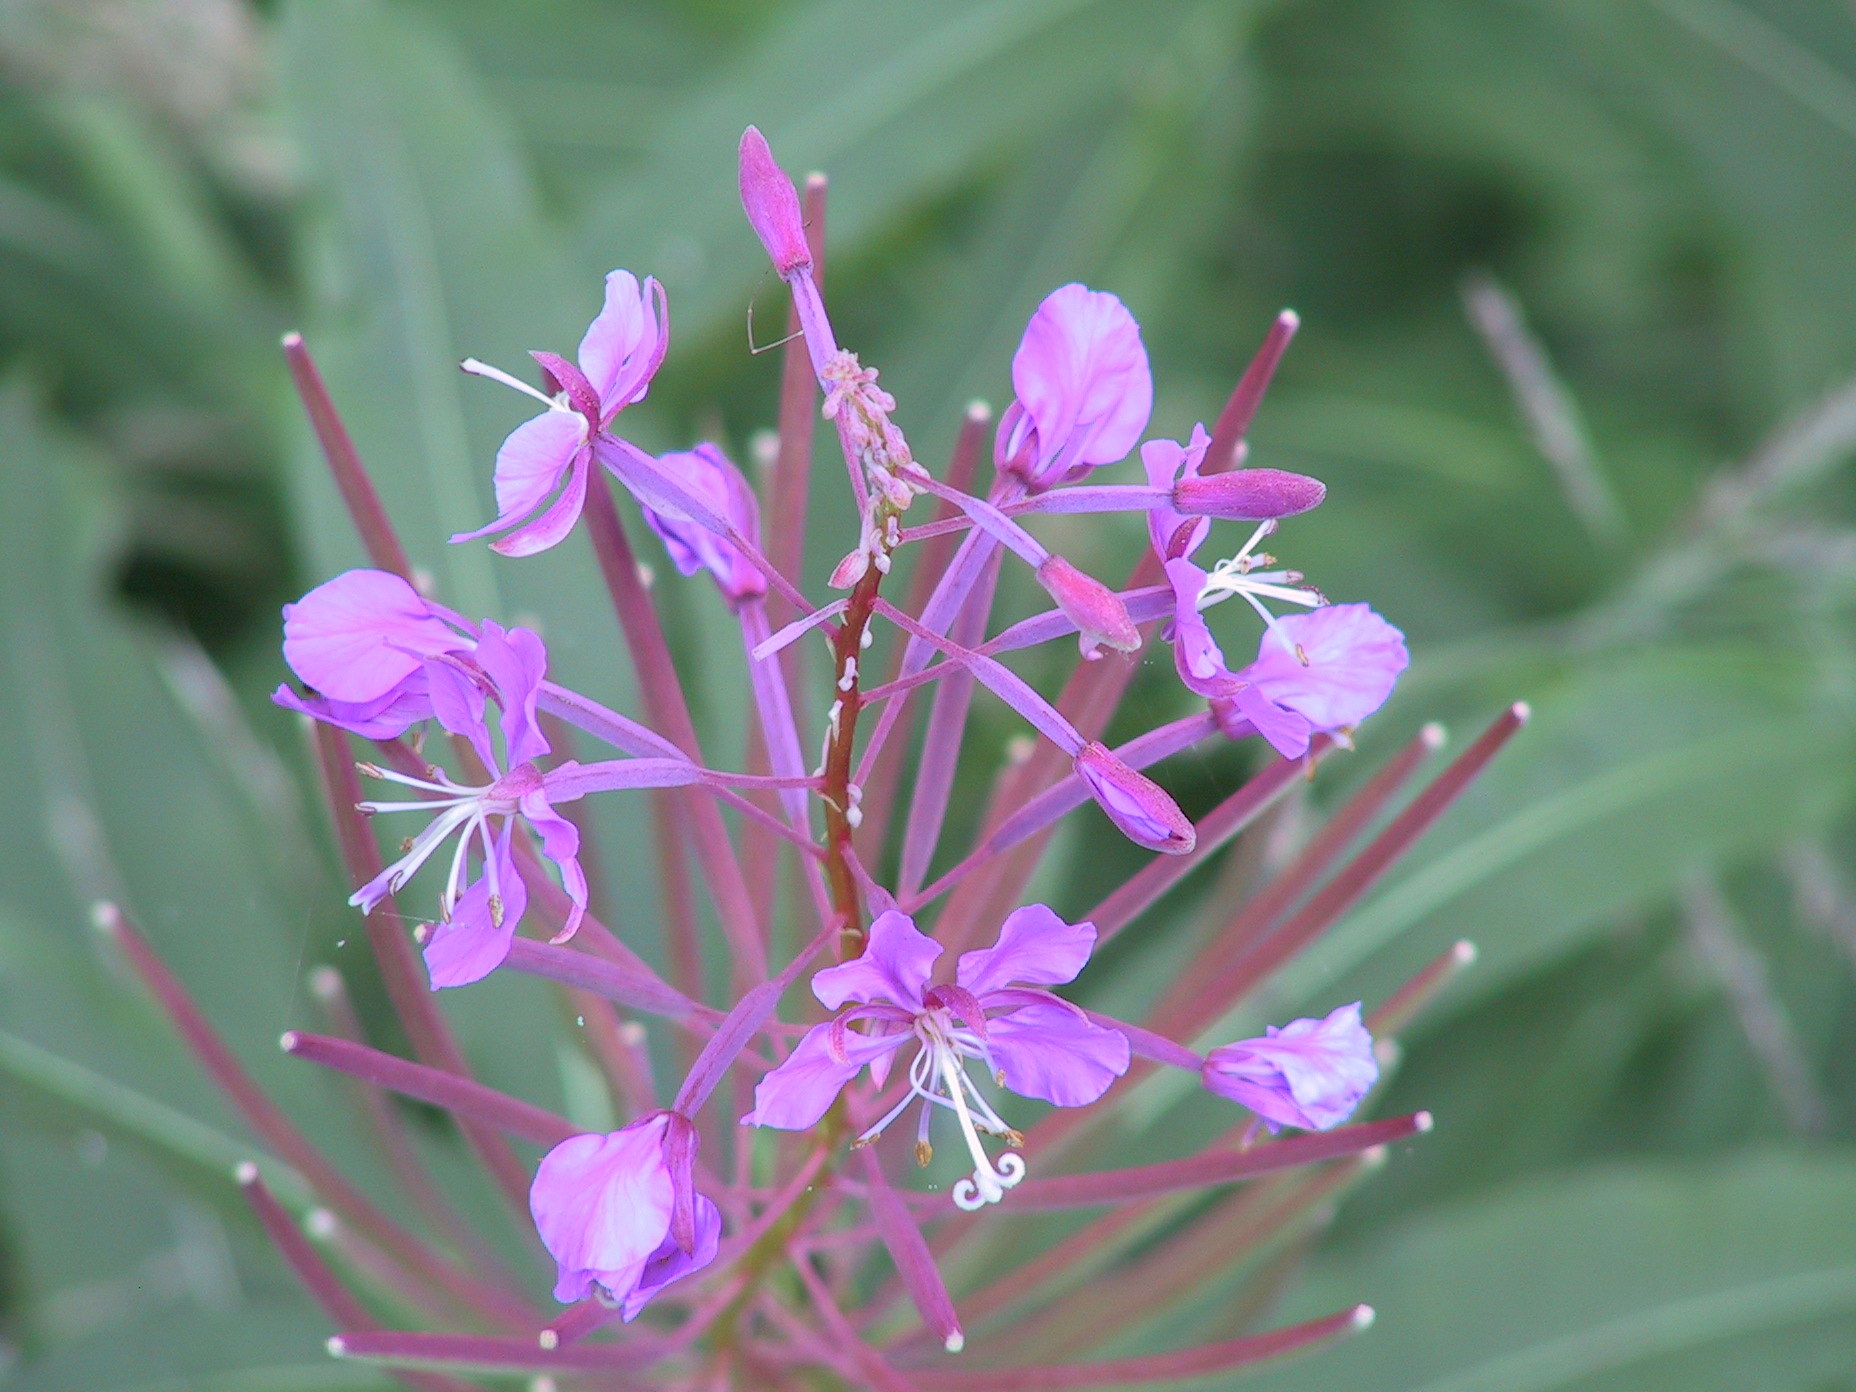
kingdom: Plantae
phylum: Tracheophyta
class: Magnoliopsida
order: Myrtales
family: Onagraceae
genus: Chamaenerion
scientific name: Chamaenerion angustifolium
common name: Fireweed
